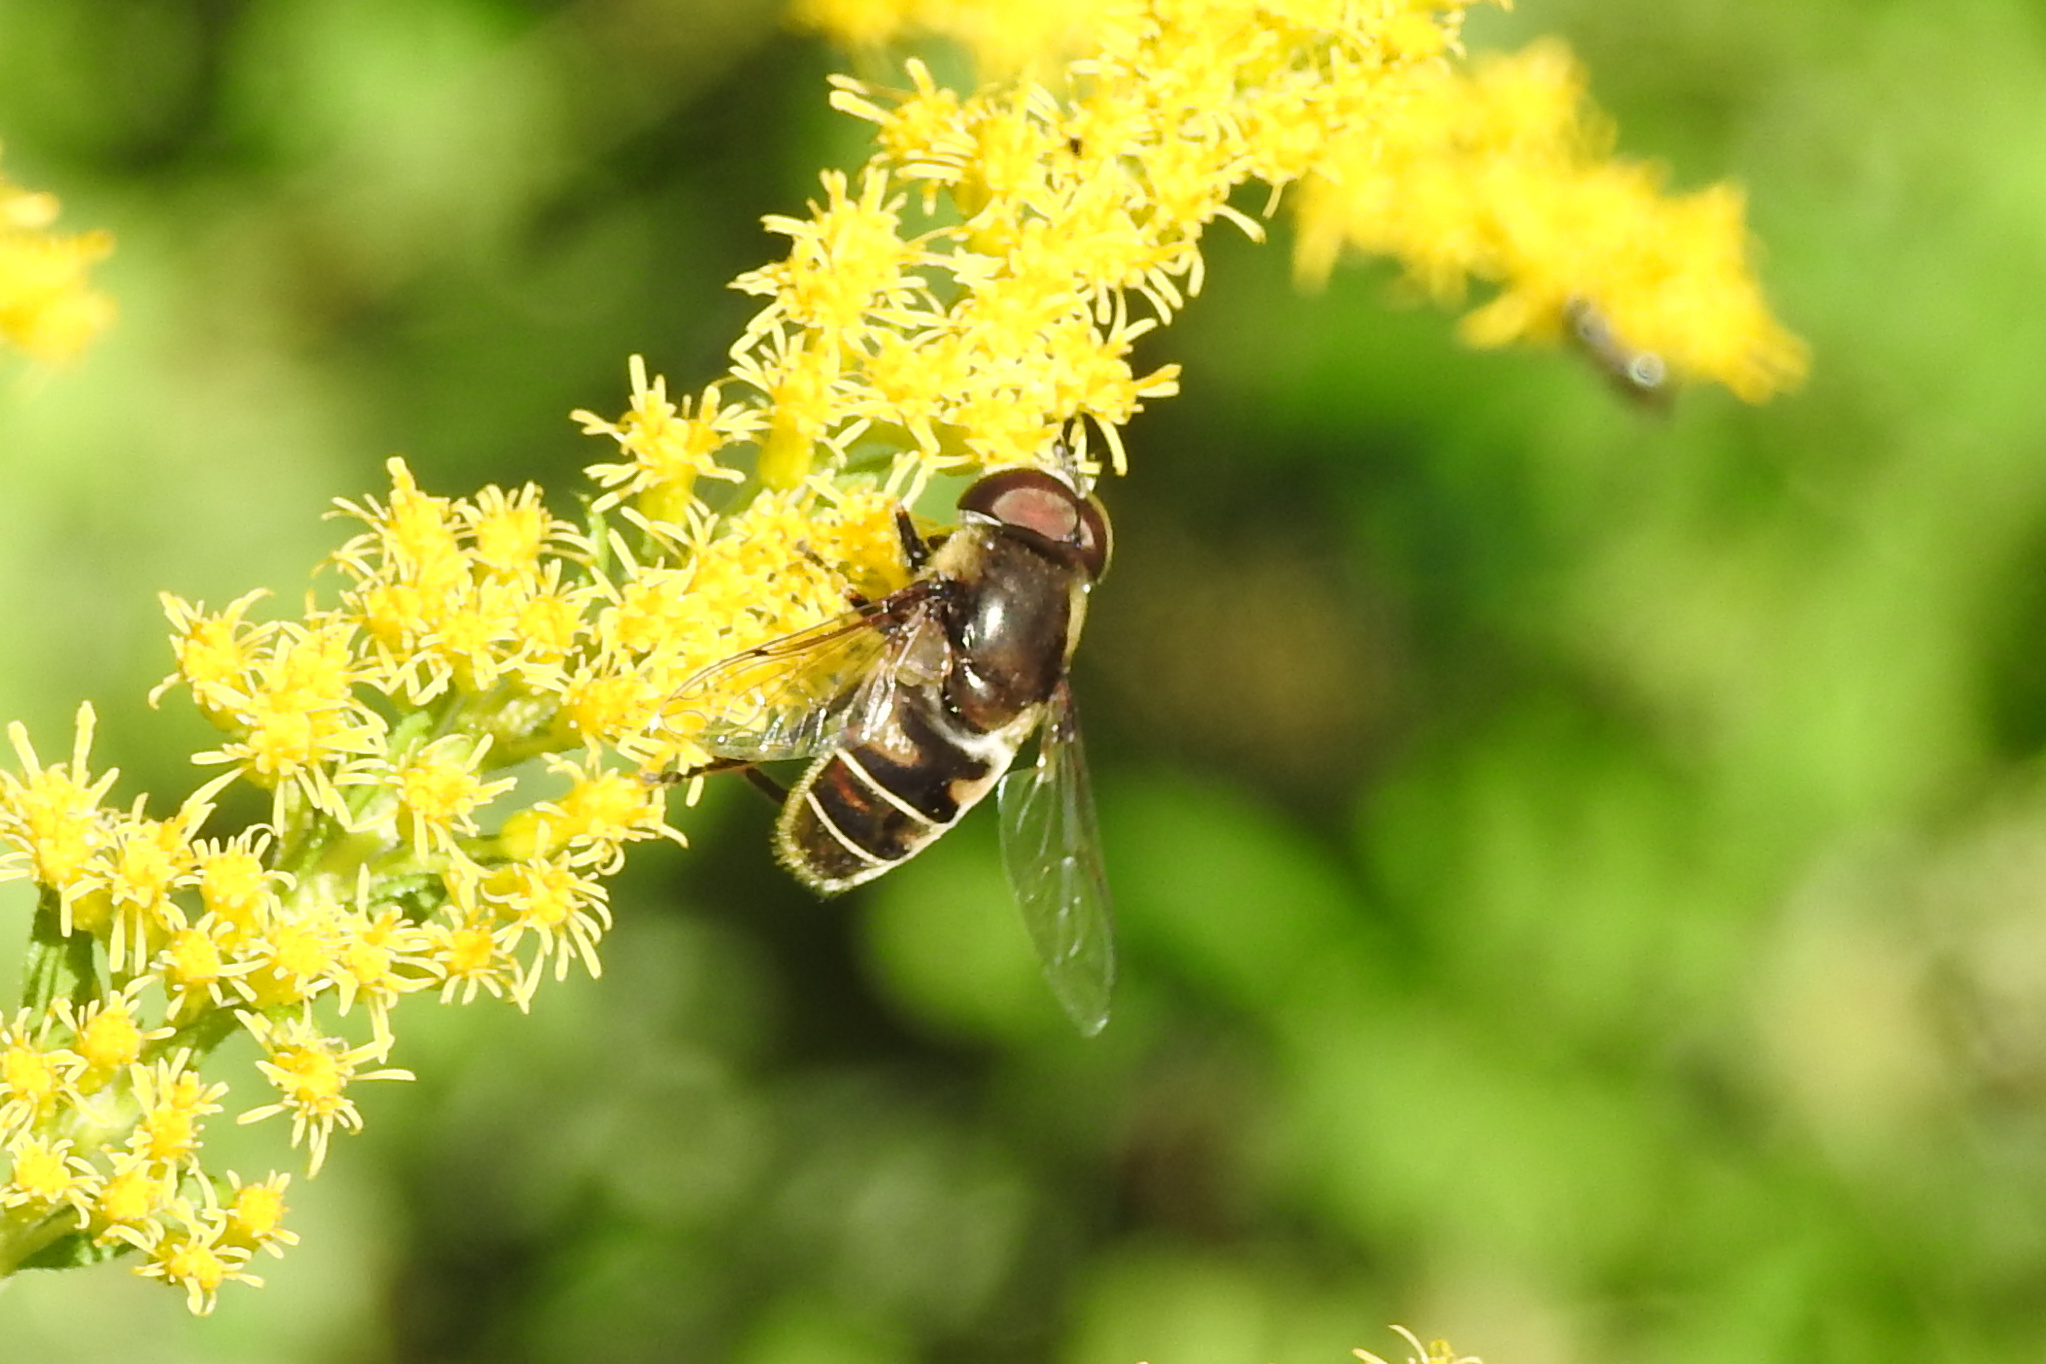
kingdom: Animalia
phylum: Arthropoda
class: Insecta
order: Diptera
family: Syrphidae
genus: Eristalis
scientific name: Eristalis dimidiata
